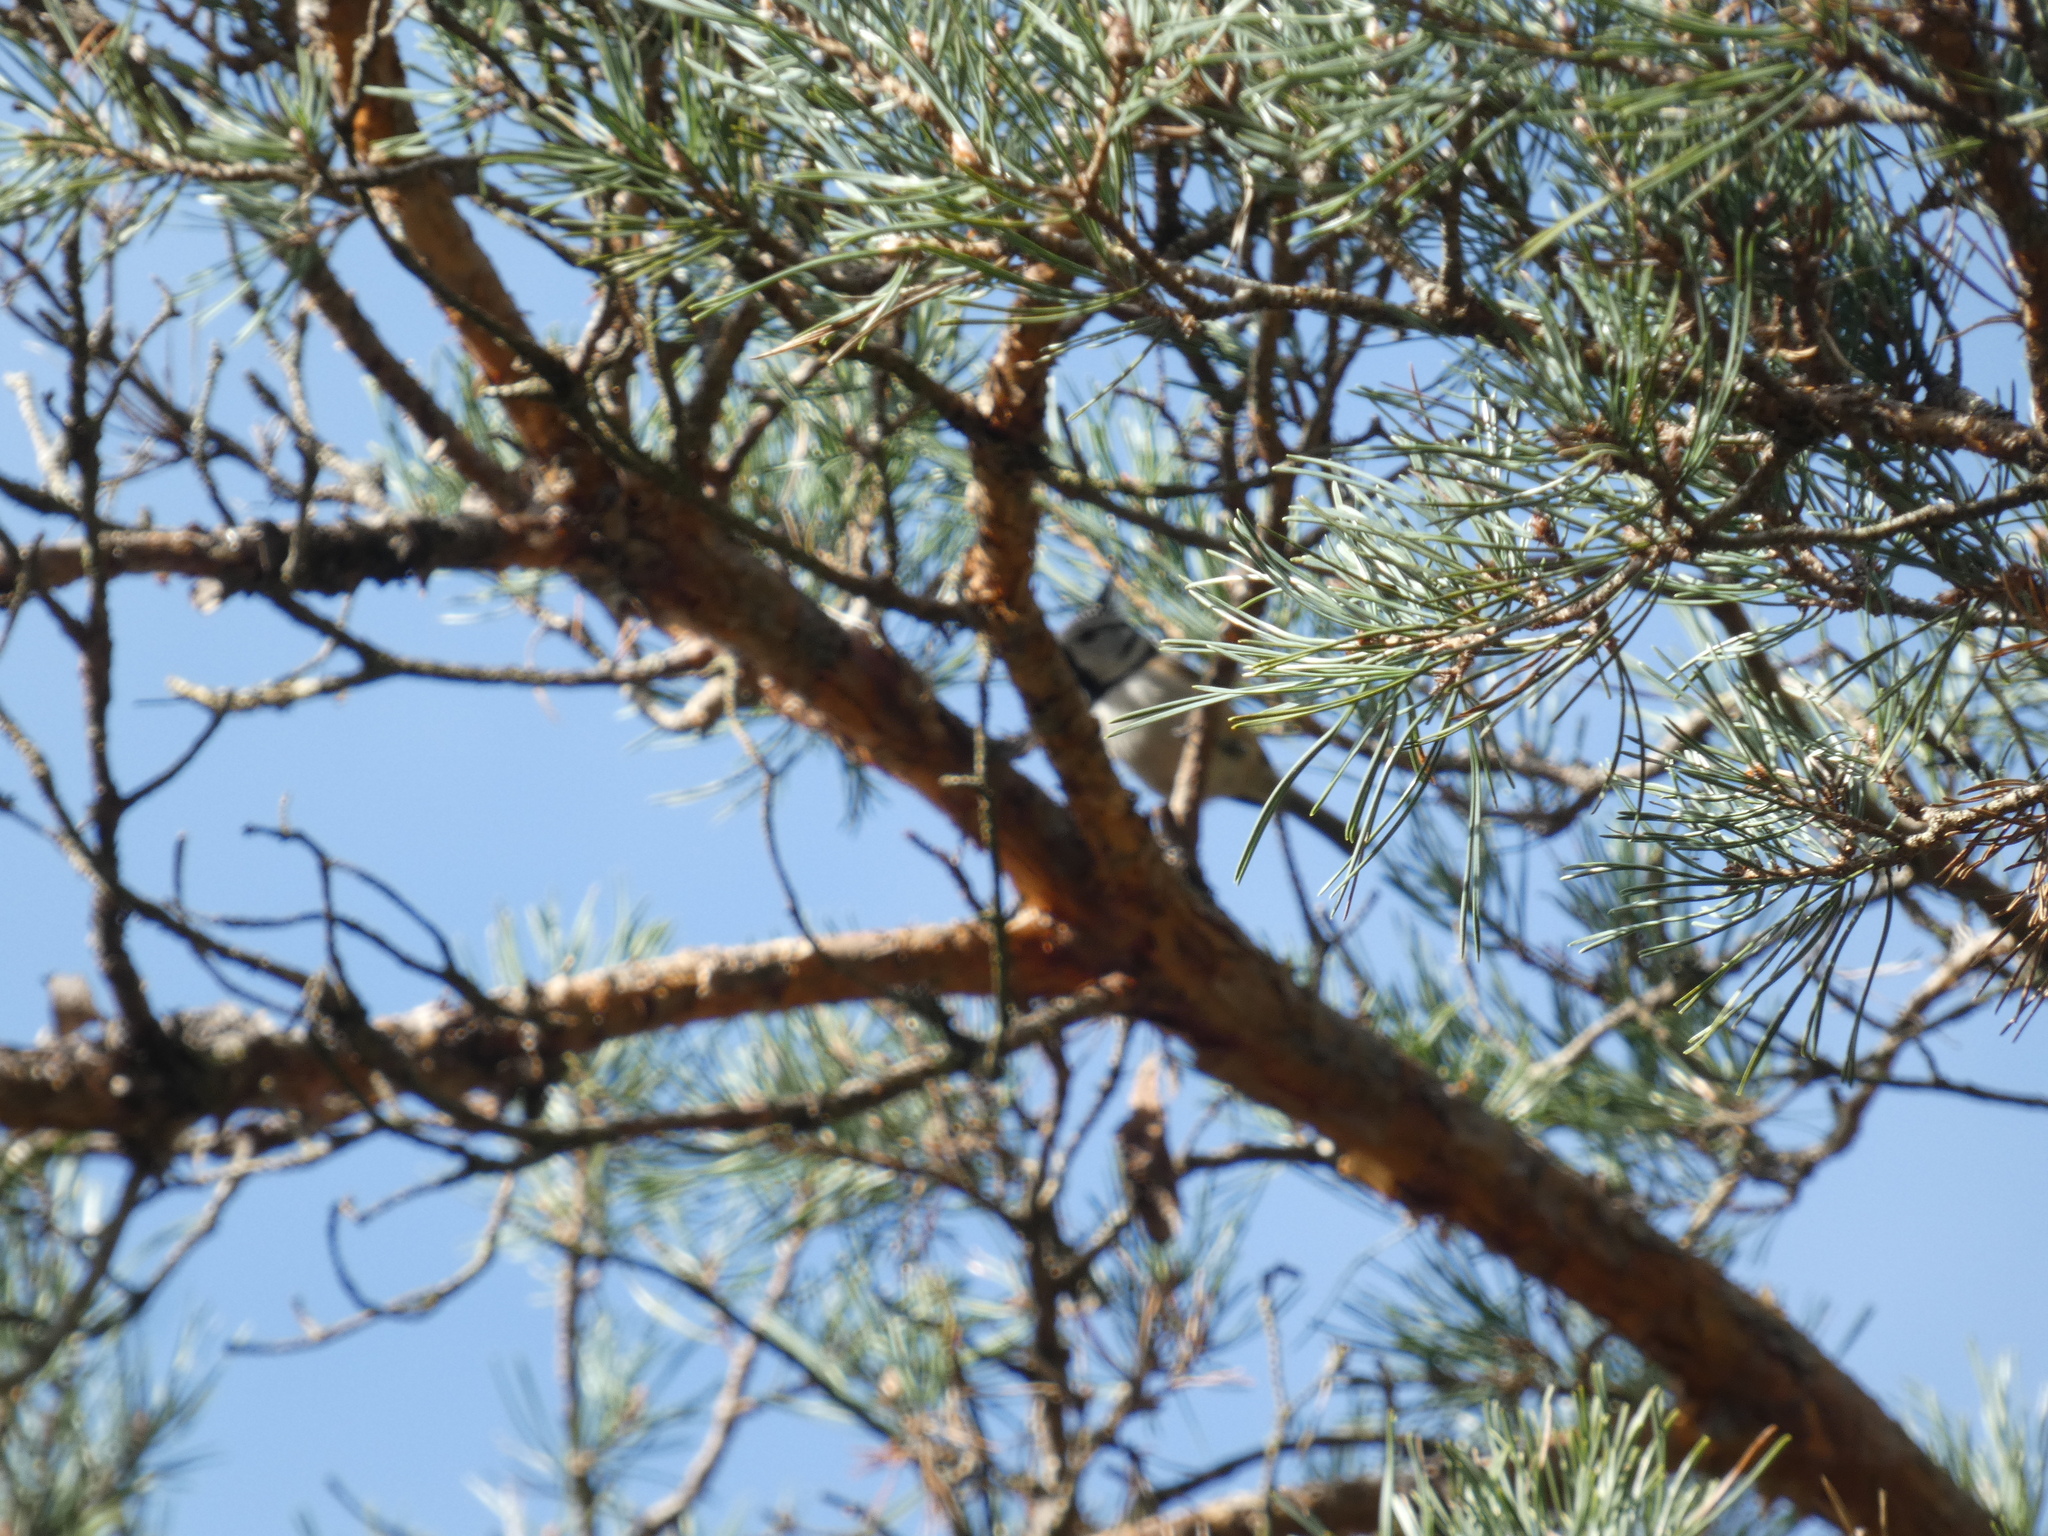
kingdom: Animalia
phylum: Chordata
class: Aves
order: Passeriformes
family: Paridae
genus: Lophophanes
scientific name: Lophophanes cristatus
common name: European crested tit
